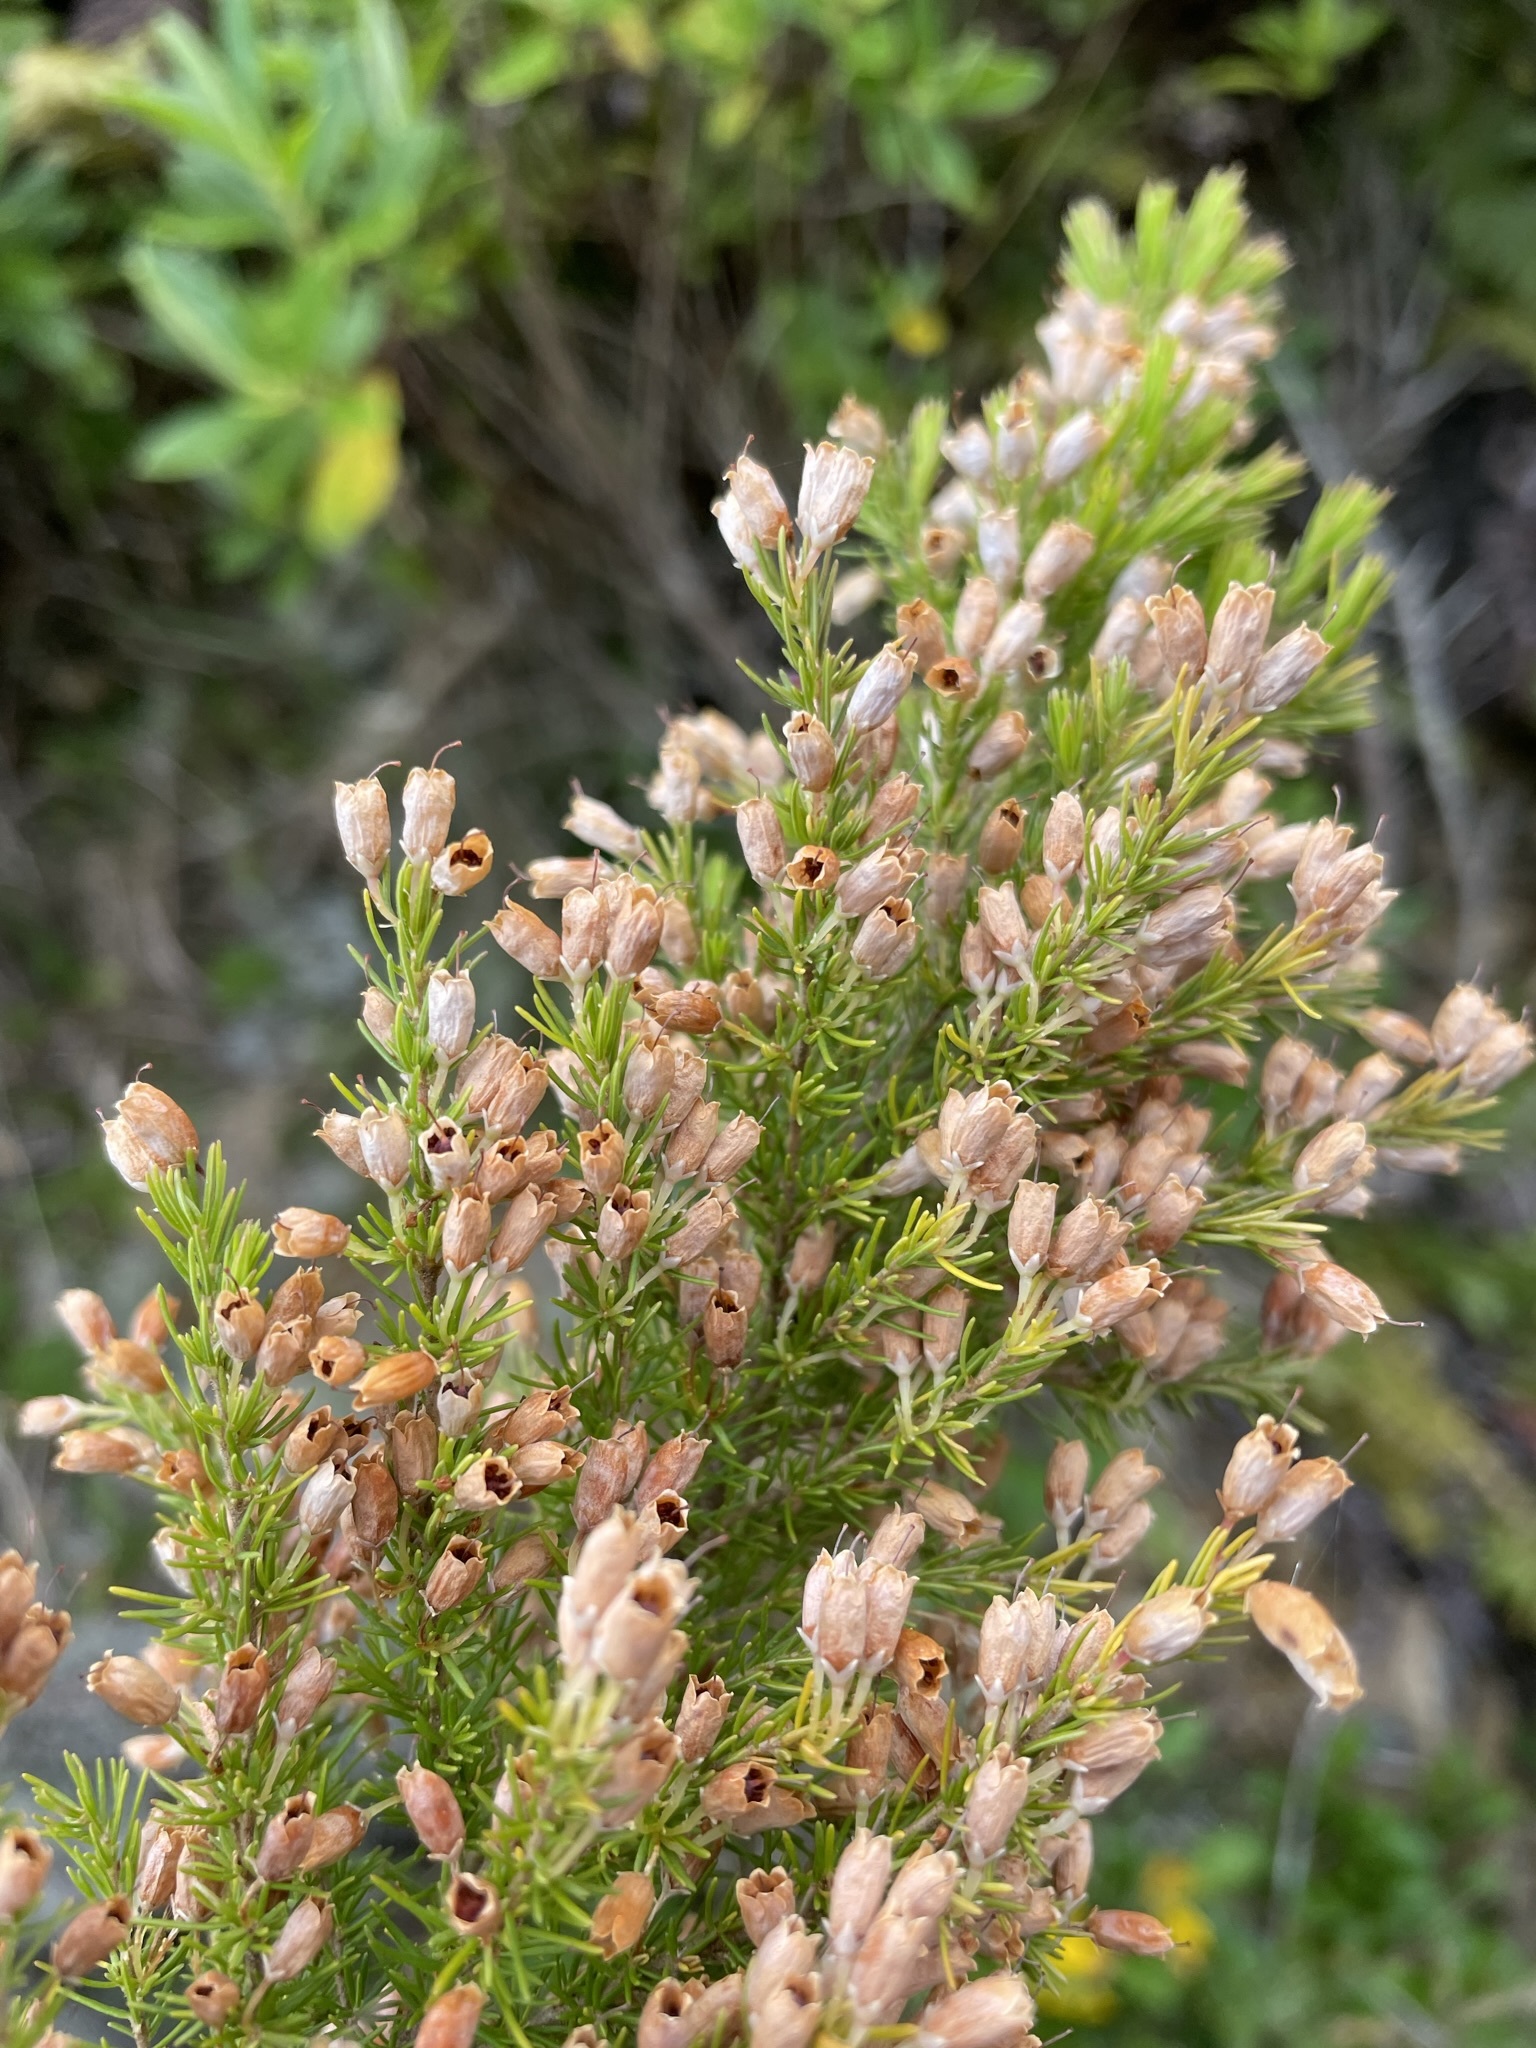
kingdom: Plantae
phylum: Tracheophyta
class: Magnoliopsida
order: Ericales
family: Ericaceae
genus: Erica
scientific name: Erica lusitanica
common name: Spanish heath
